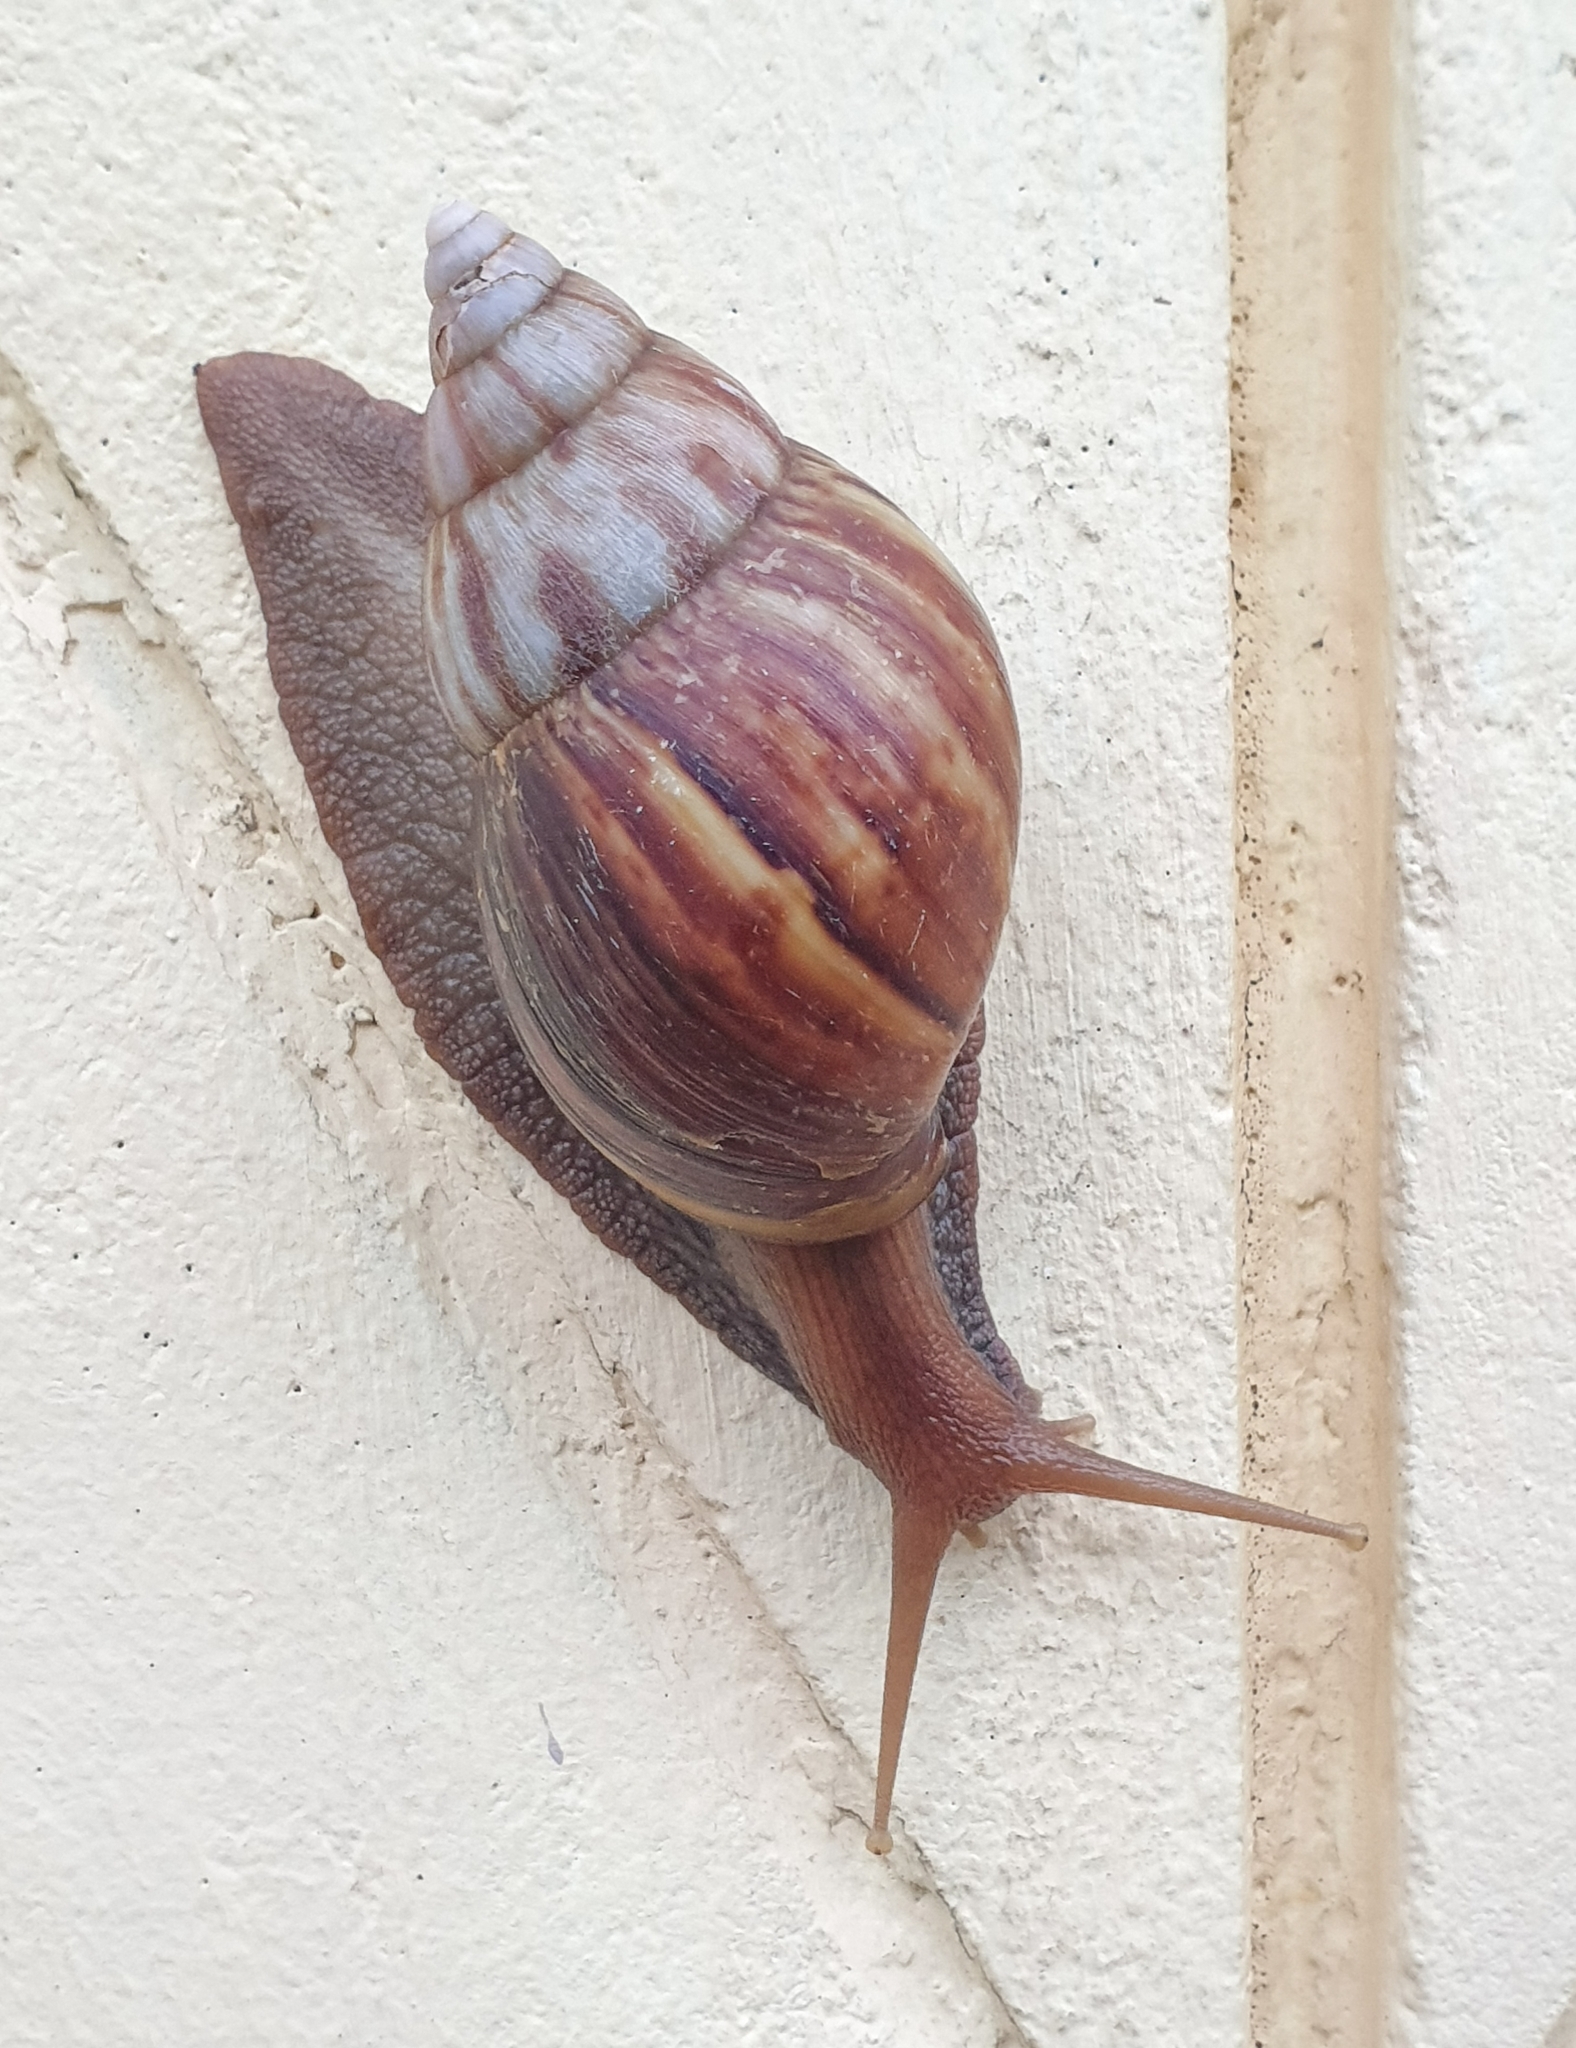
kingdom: Animalia
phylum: Mollusca
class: Gastropoda
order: Stylommatophora
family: Achatinidae
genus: Lissachatina
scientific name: Lissachatina fulica
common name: Giant african snail
